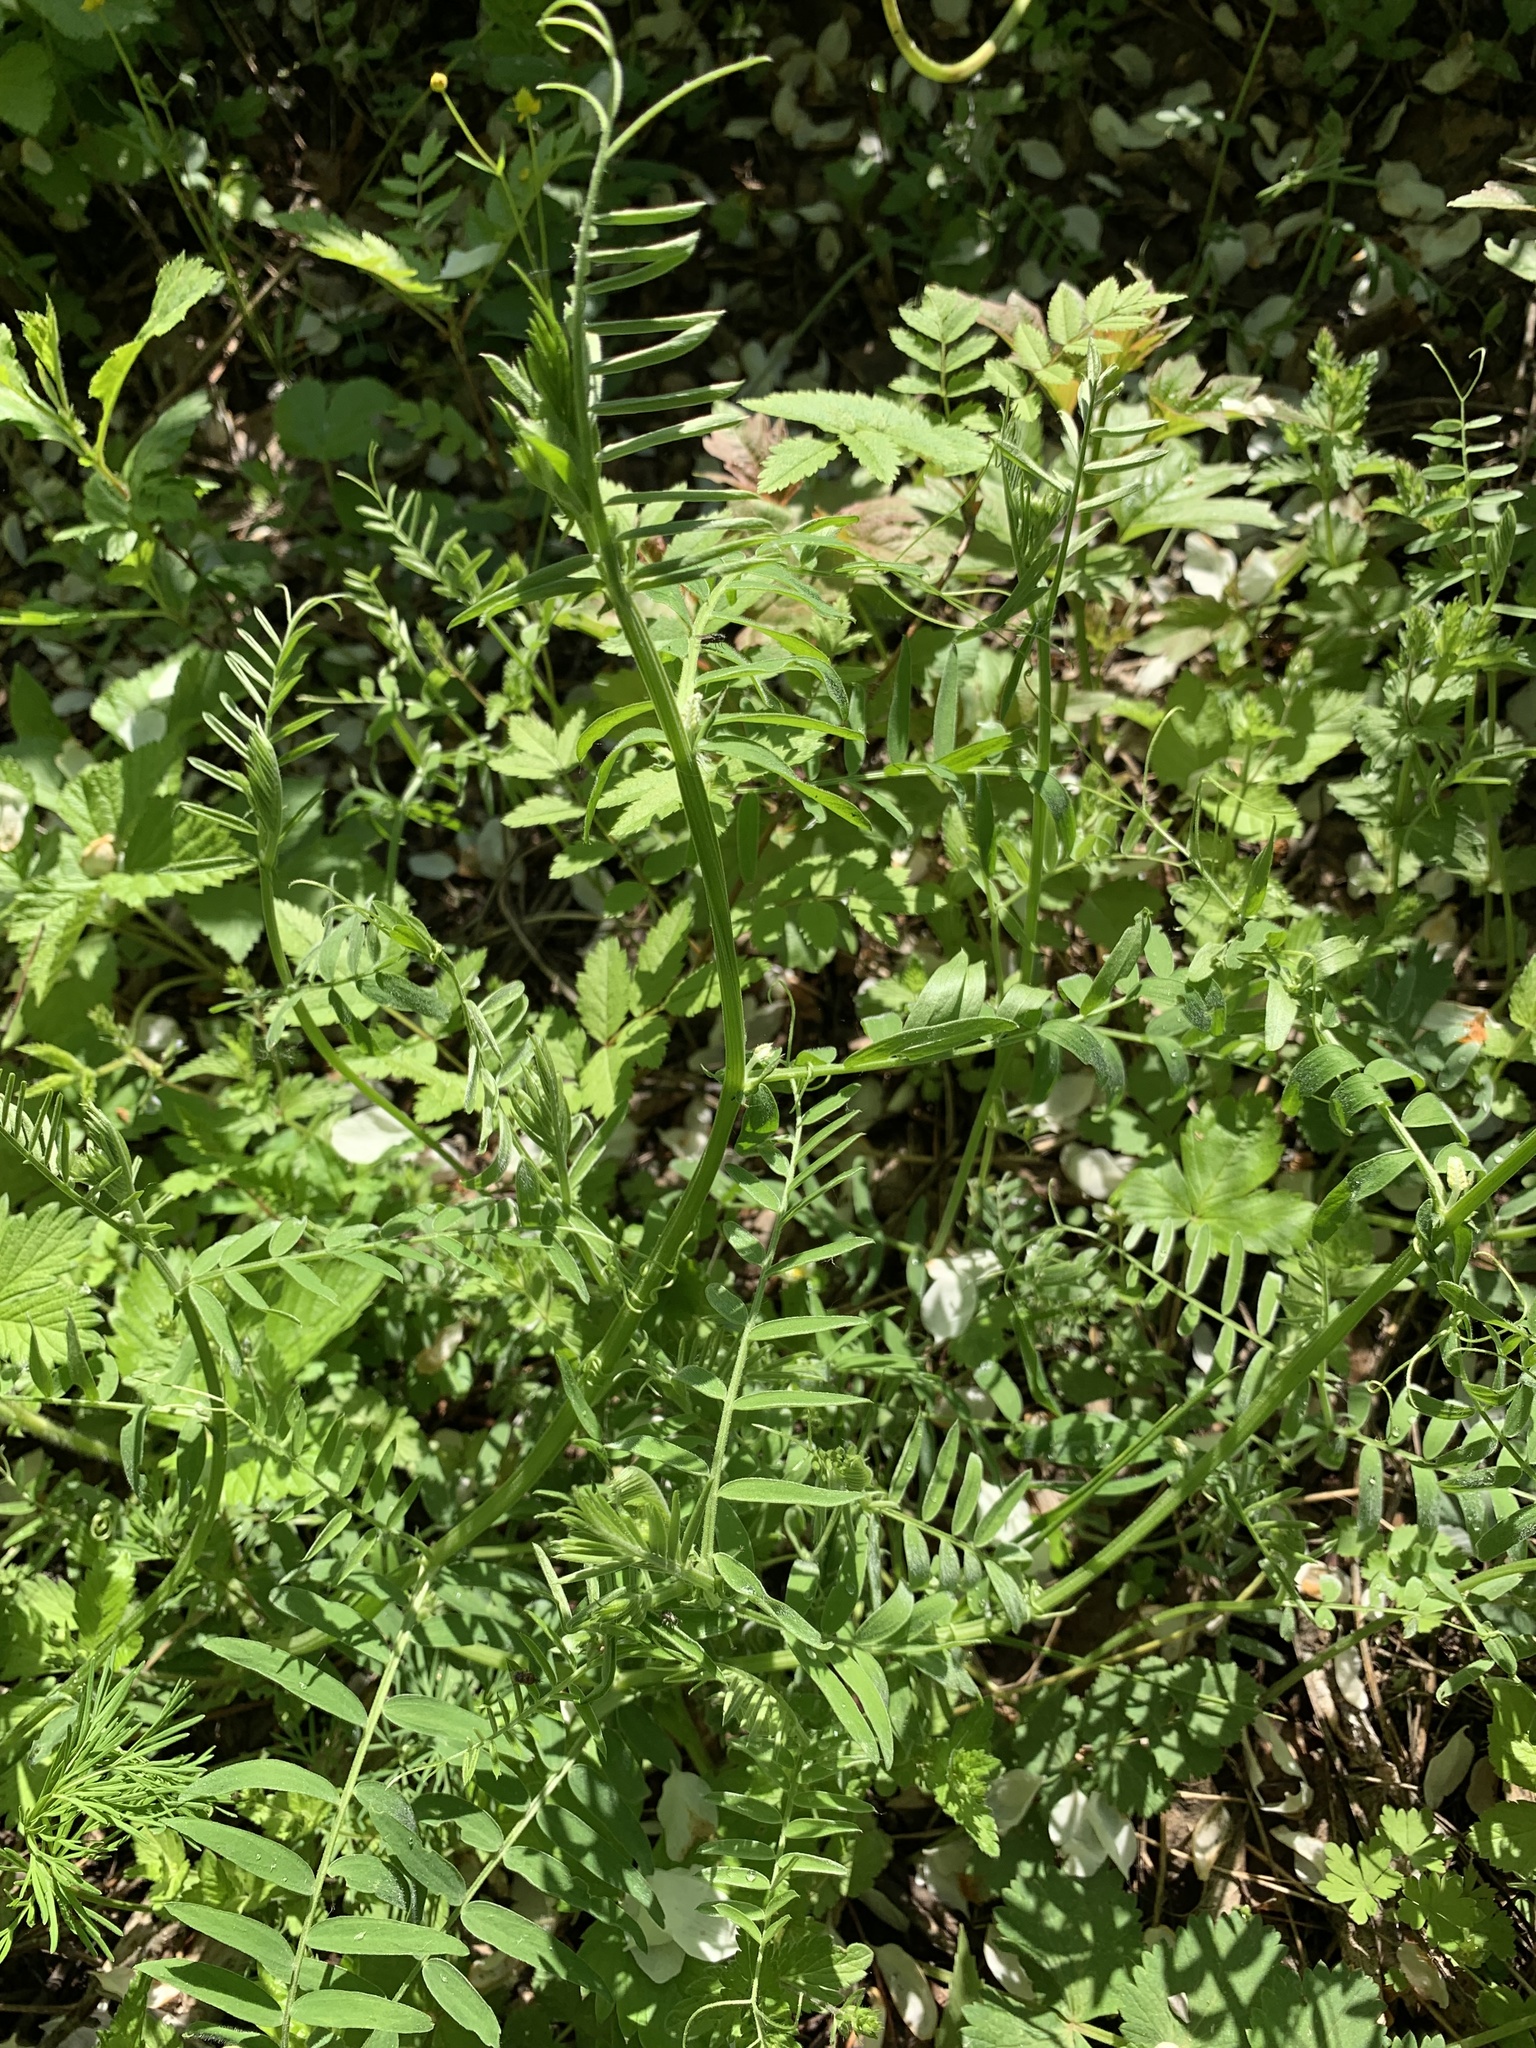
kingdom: Plantae
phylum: Tracheophyta
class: Magnoliopsida
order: Fabales
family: Fabaceae
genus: Vicia
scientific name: Vicia cracca
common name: Bird vetch
